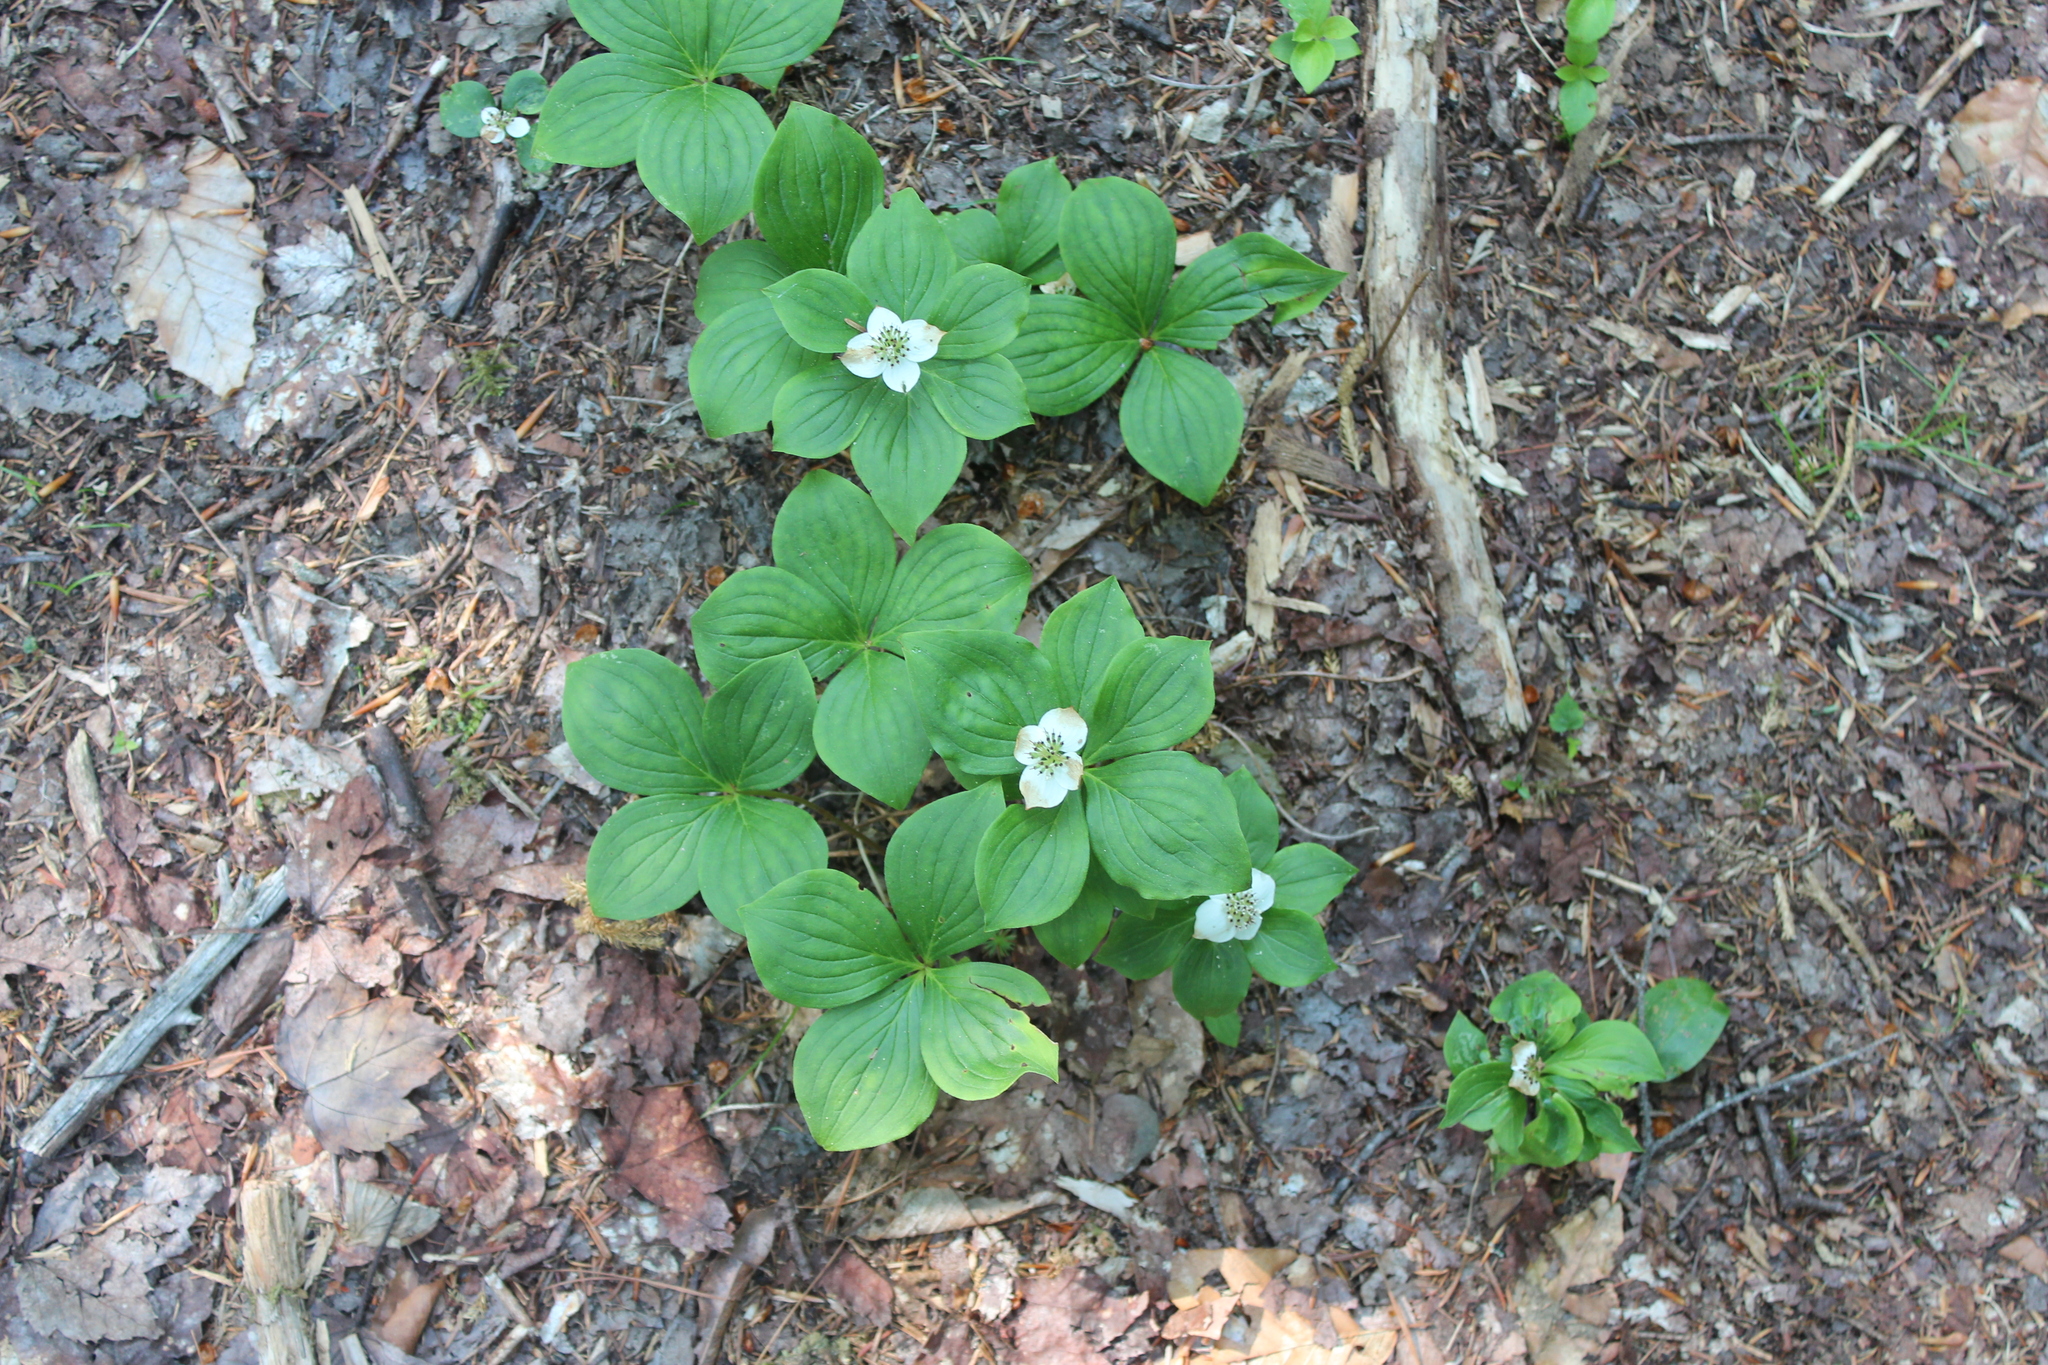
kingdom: Plantae
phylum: Tracheophyta
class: Magnoliopsida
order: Cornales
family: Cornaceae
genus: Cornus
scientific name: Cornus canadensis
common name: Creeping dogwood
